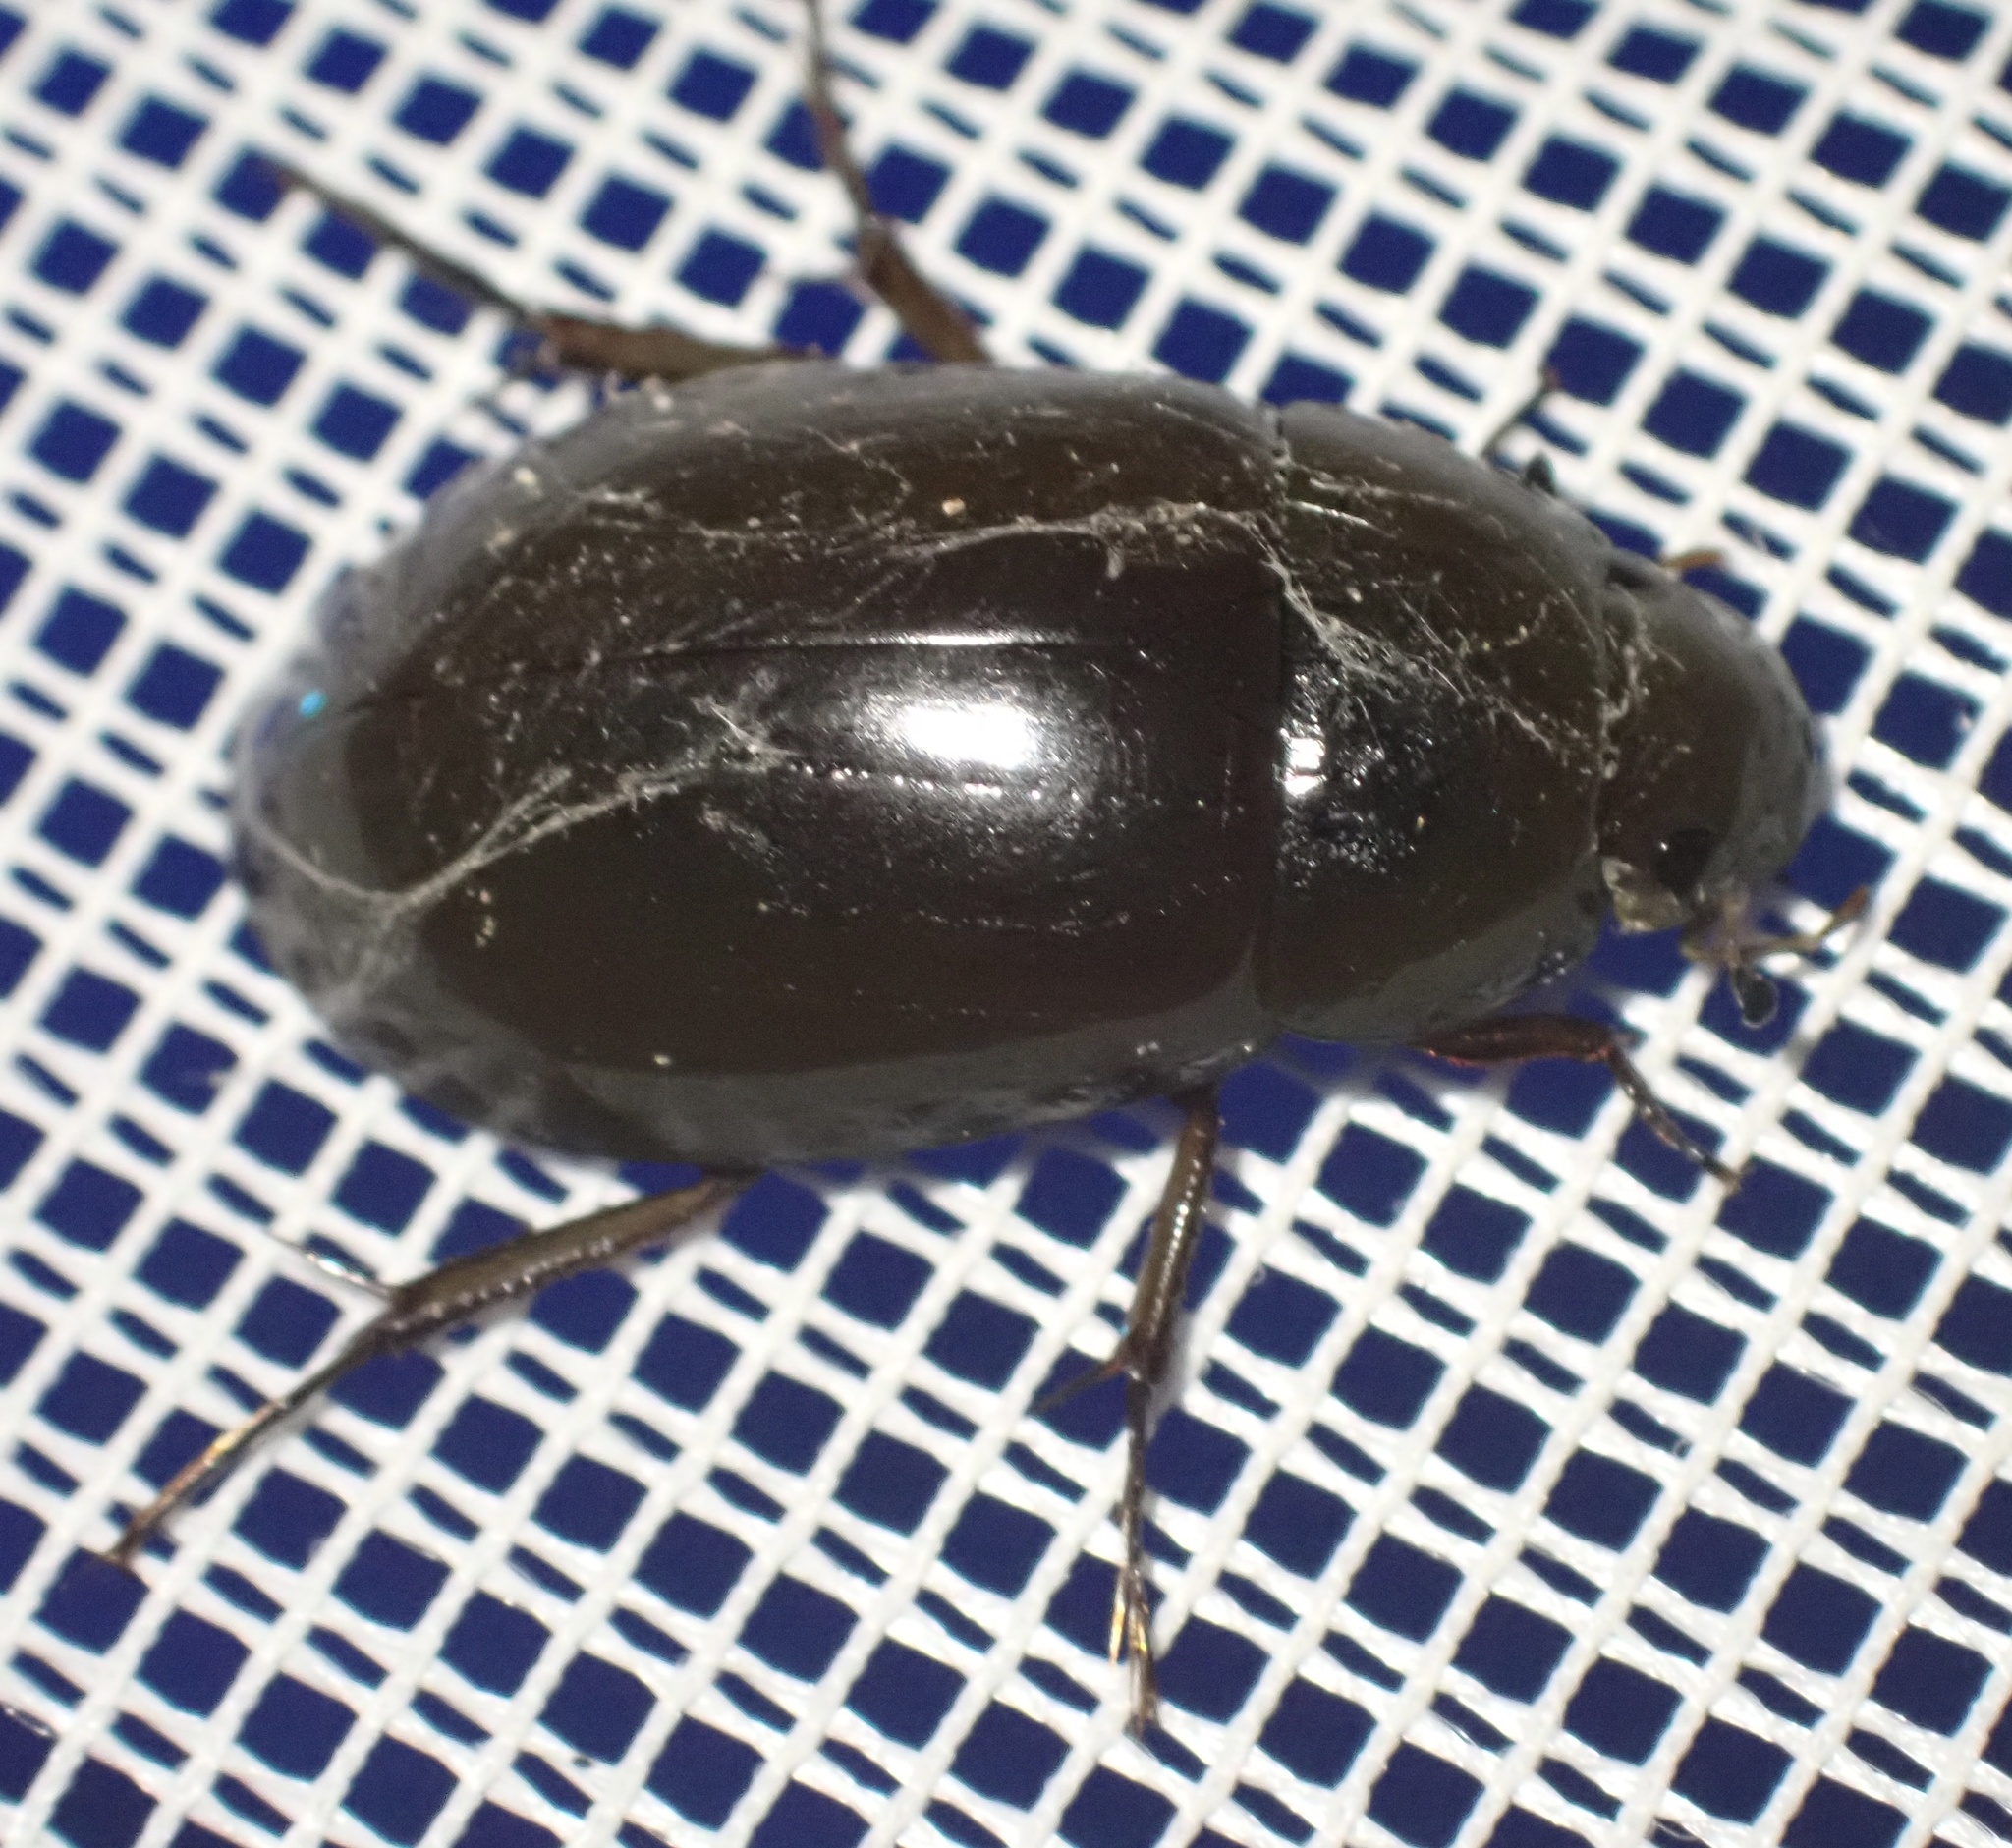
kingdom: Animalia
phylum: Arthropoda
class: Insecta
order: Coleoptera
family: Hydrophilidae
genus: Hydrochara
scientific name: Hydrochara caraboides
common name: Lesser silver water beetle
